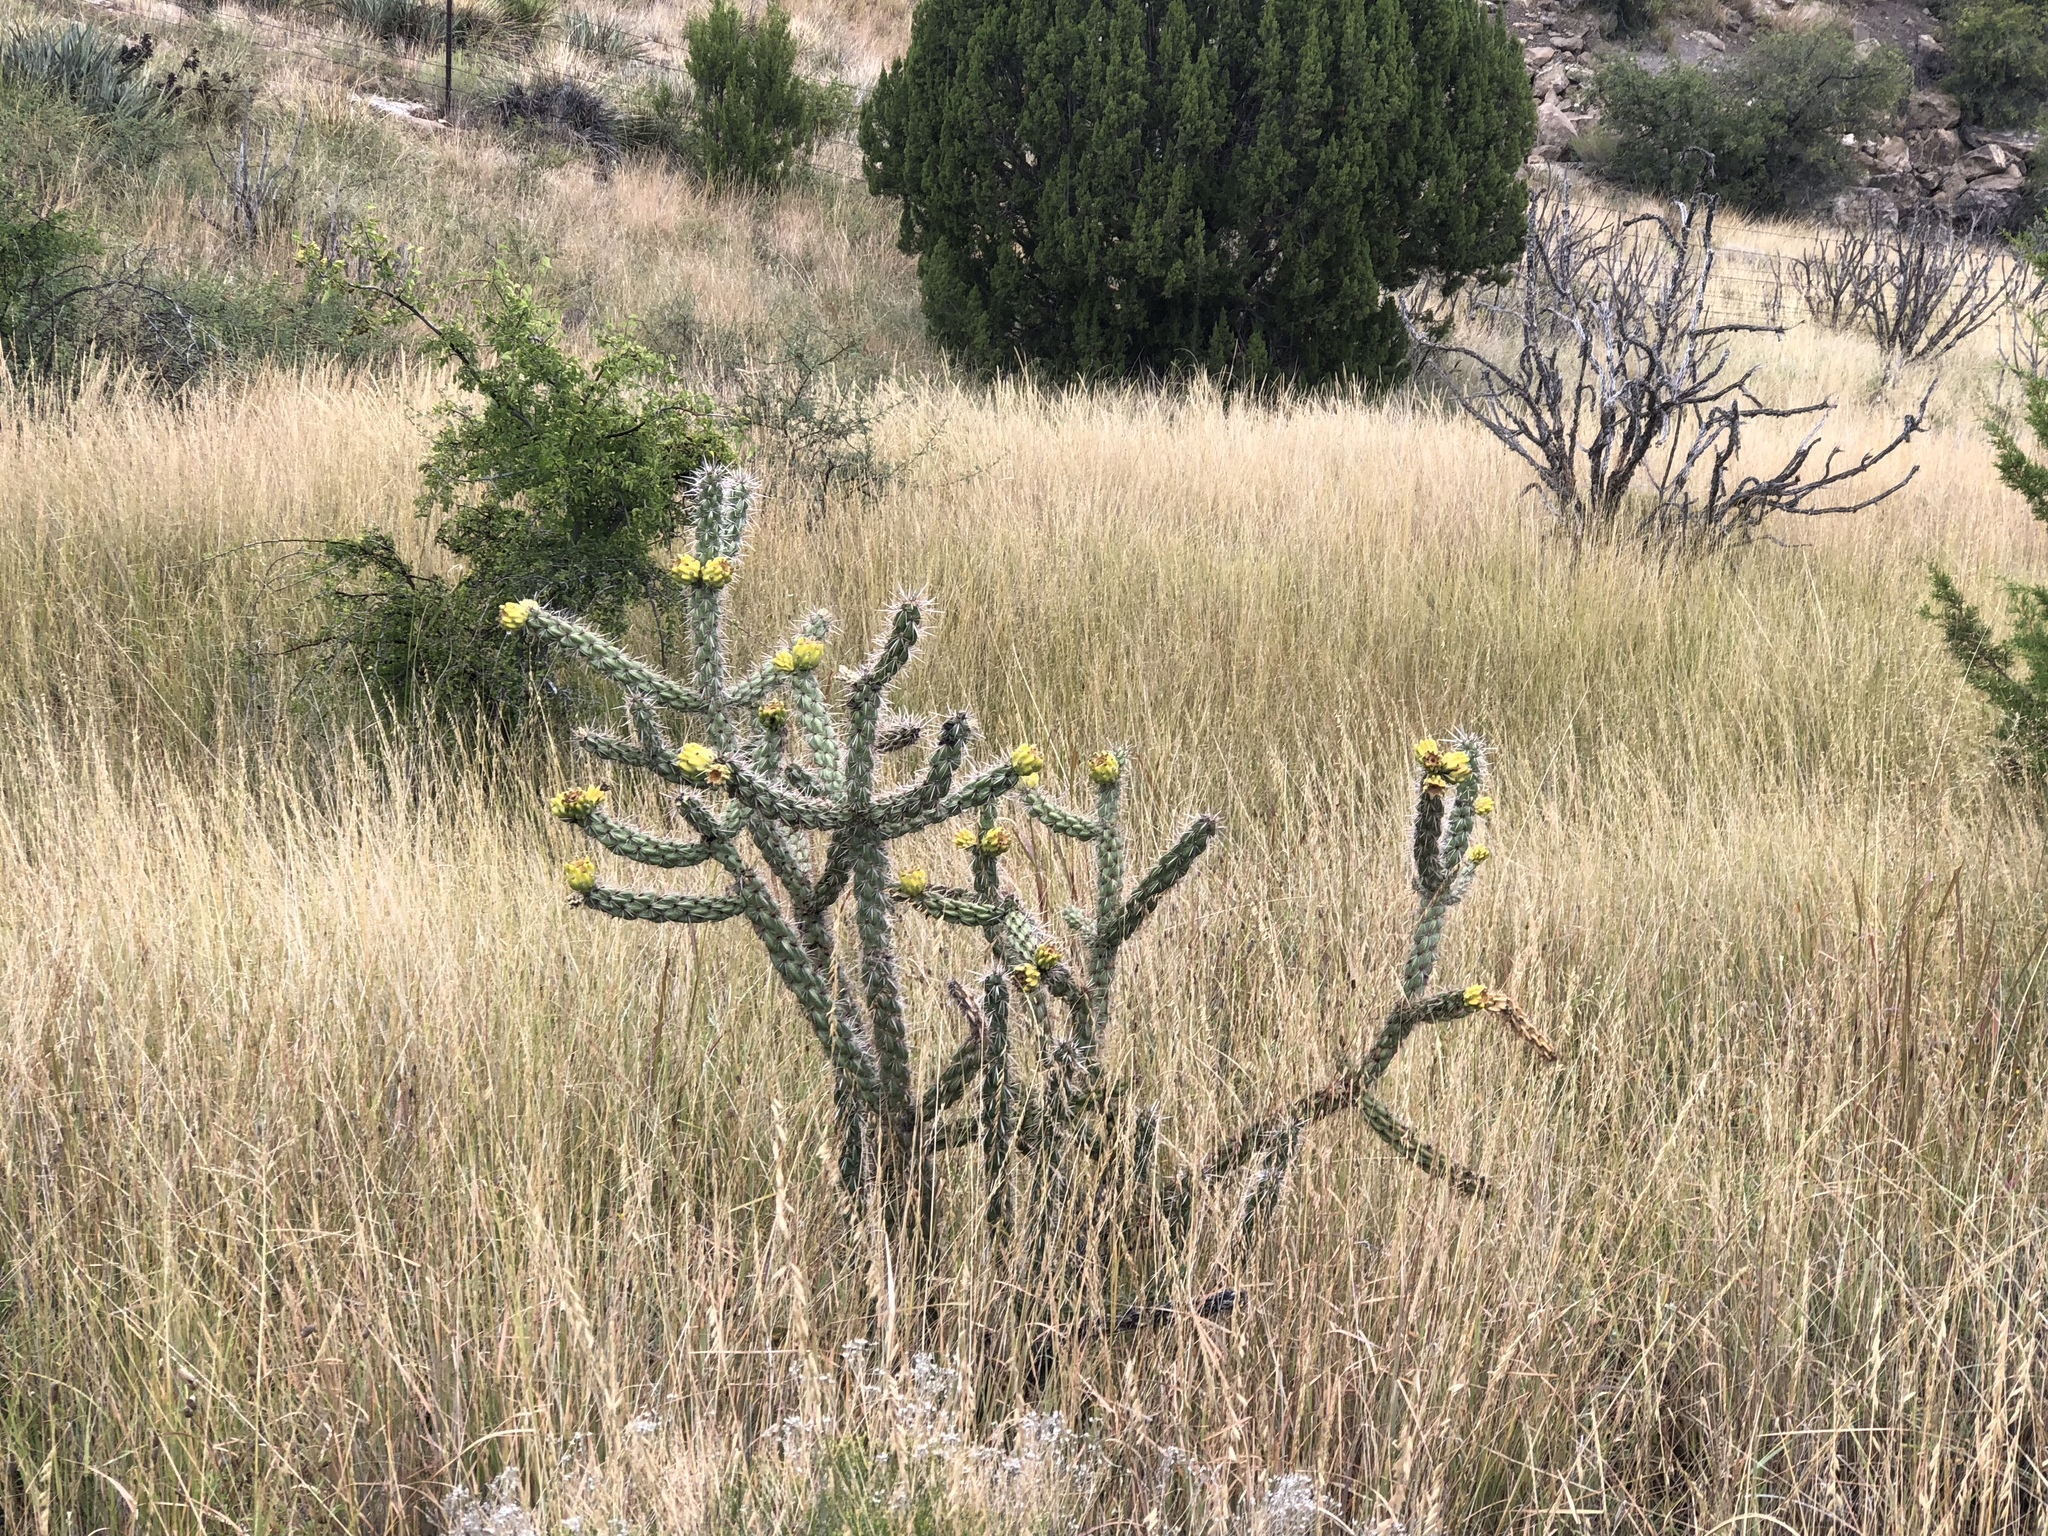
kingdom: Plantae
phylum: Tracheophyta
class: Magnoliopsida
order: Caryophyllales
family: Cactaceae
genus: Cylindropuntia
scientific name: Cylindropuntia imbricata
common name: Candelabrum cactus
